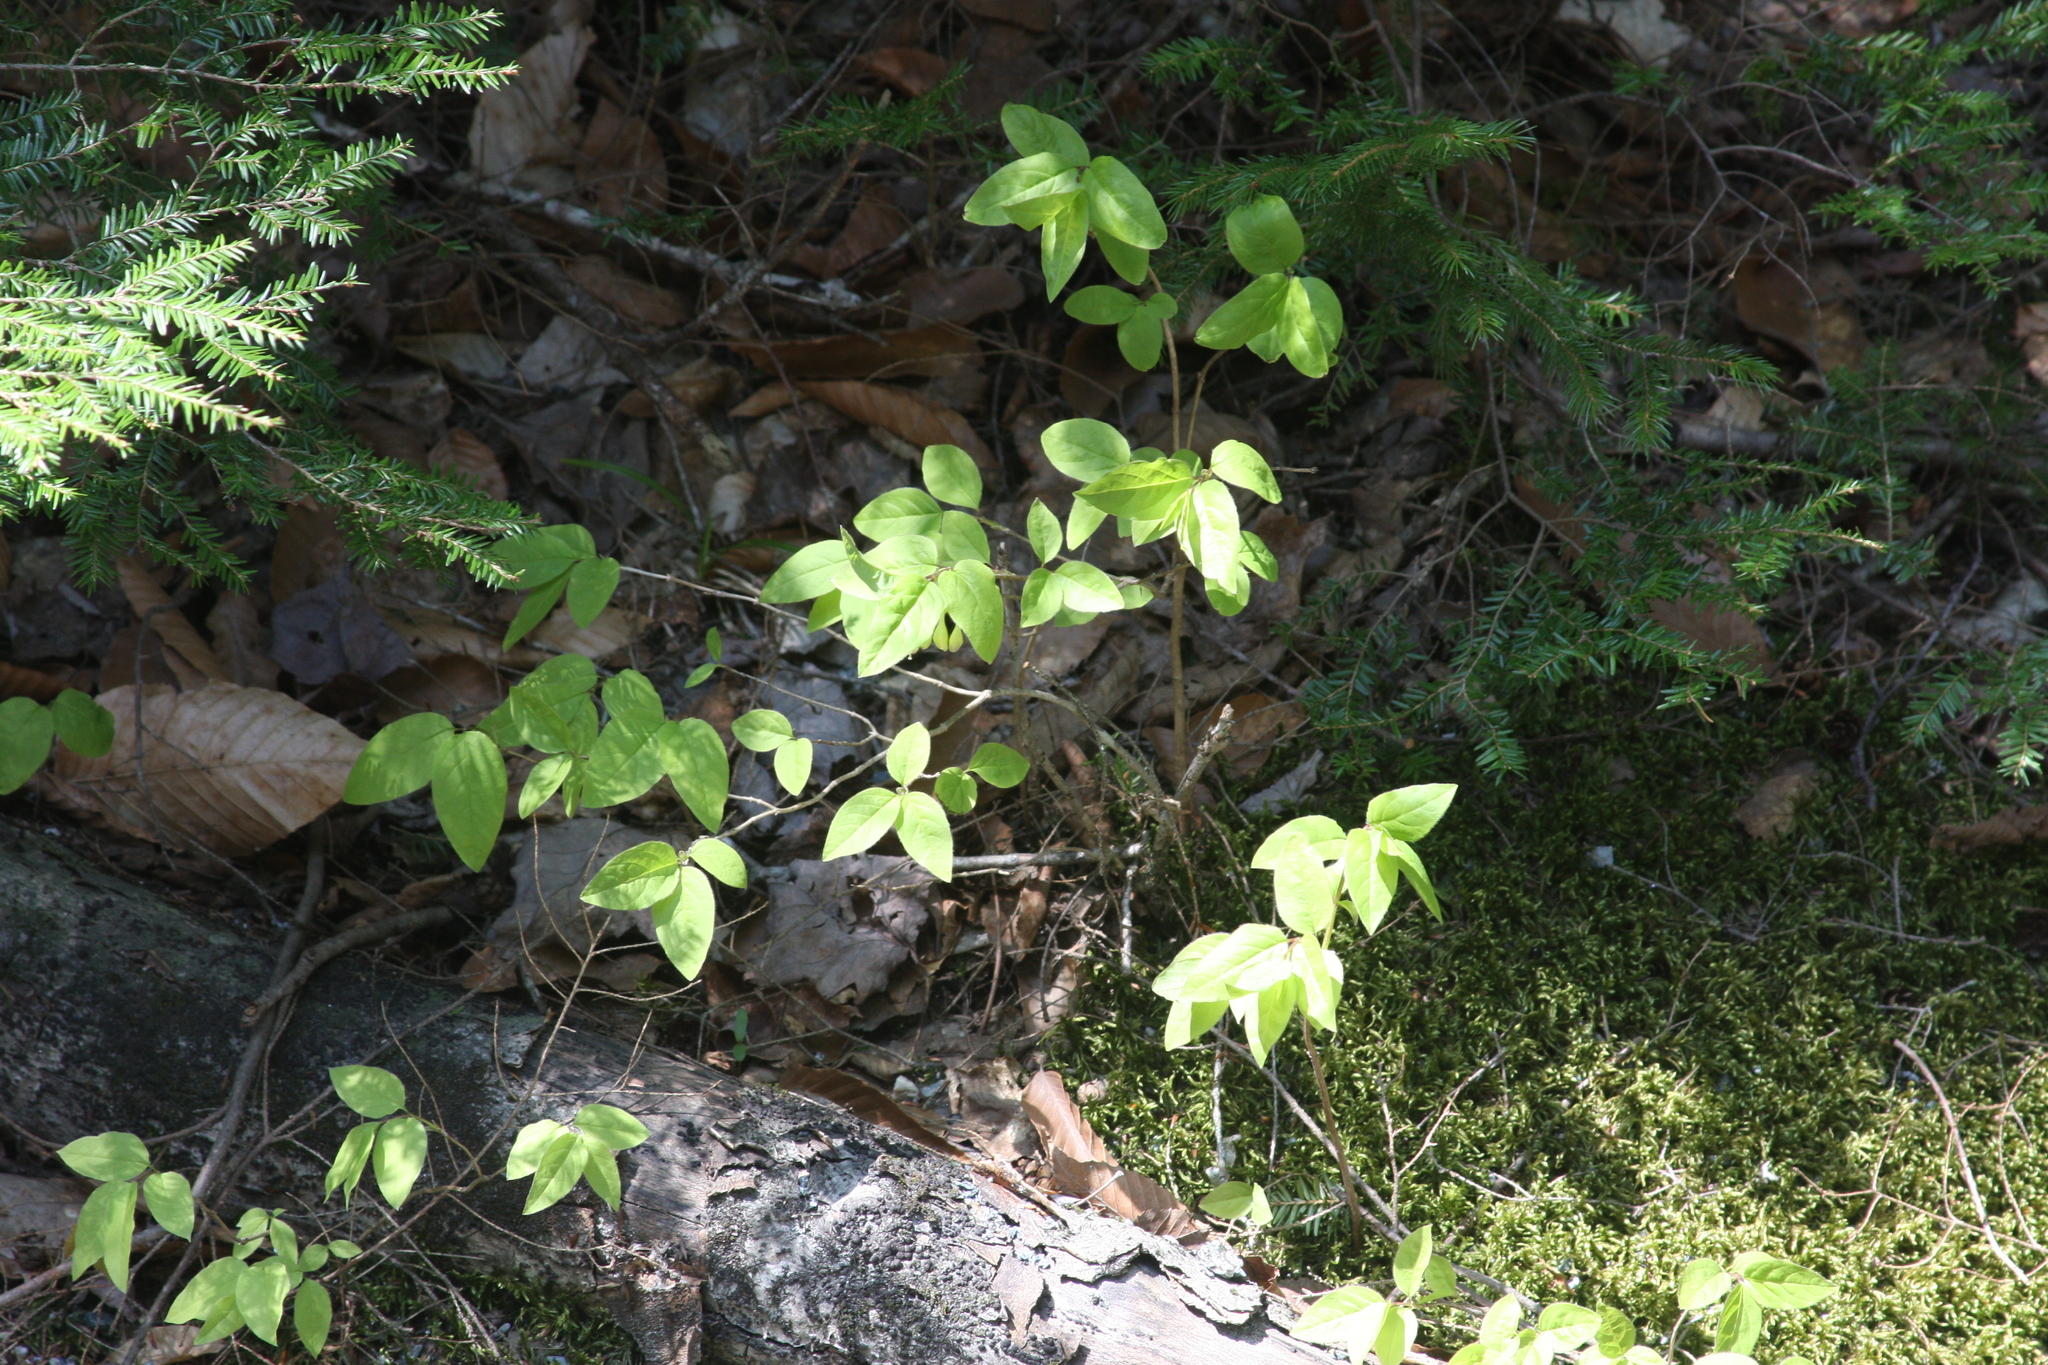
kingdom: Plantae
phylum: Tracheophyta
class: Magnoliopsida
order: Dipsacales
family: Caprifoliaceae
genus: Lonicera
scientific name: Lonicera canadensis
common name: American fly-honeysuckle
